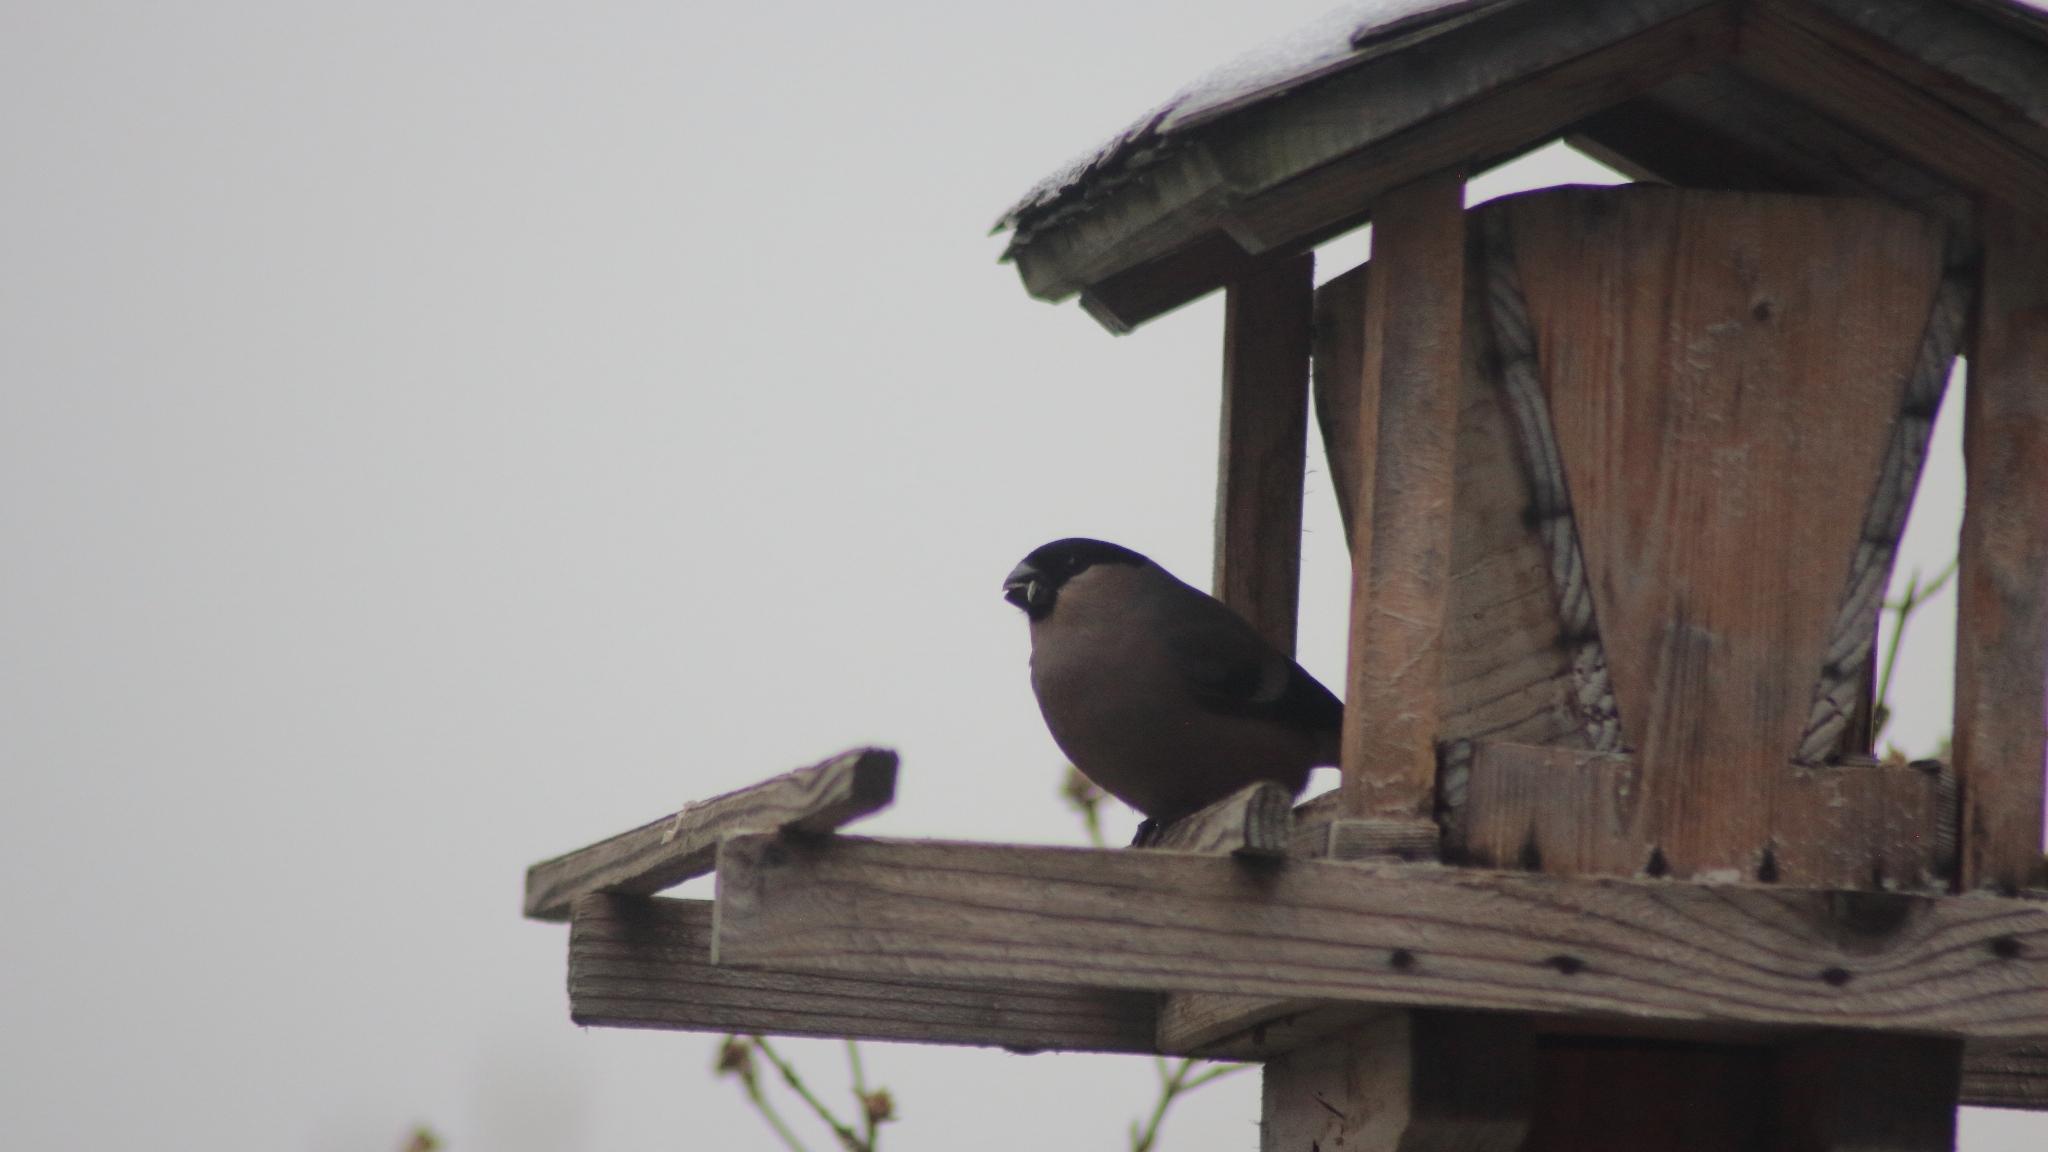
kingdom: Animalia
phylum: Chordata
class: Aves
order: Passeriformes
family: Fringillidae
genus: Pyrrhula
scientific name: Pyrrhula pyrrhula
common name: Eurasian bullfinch
